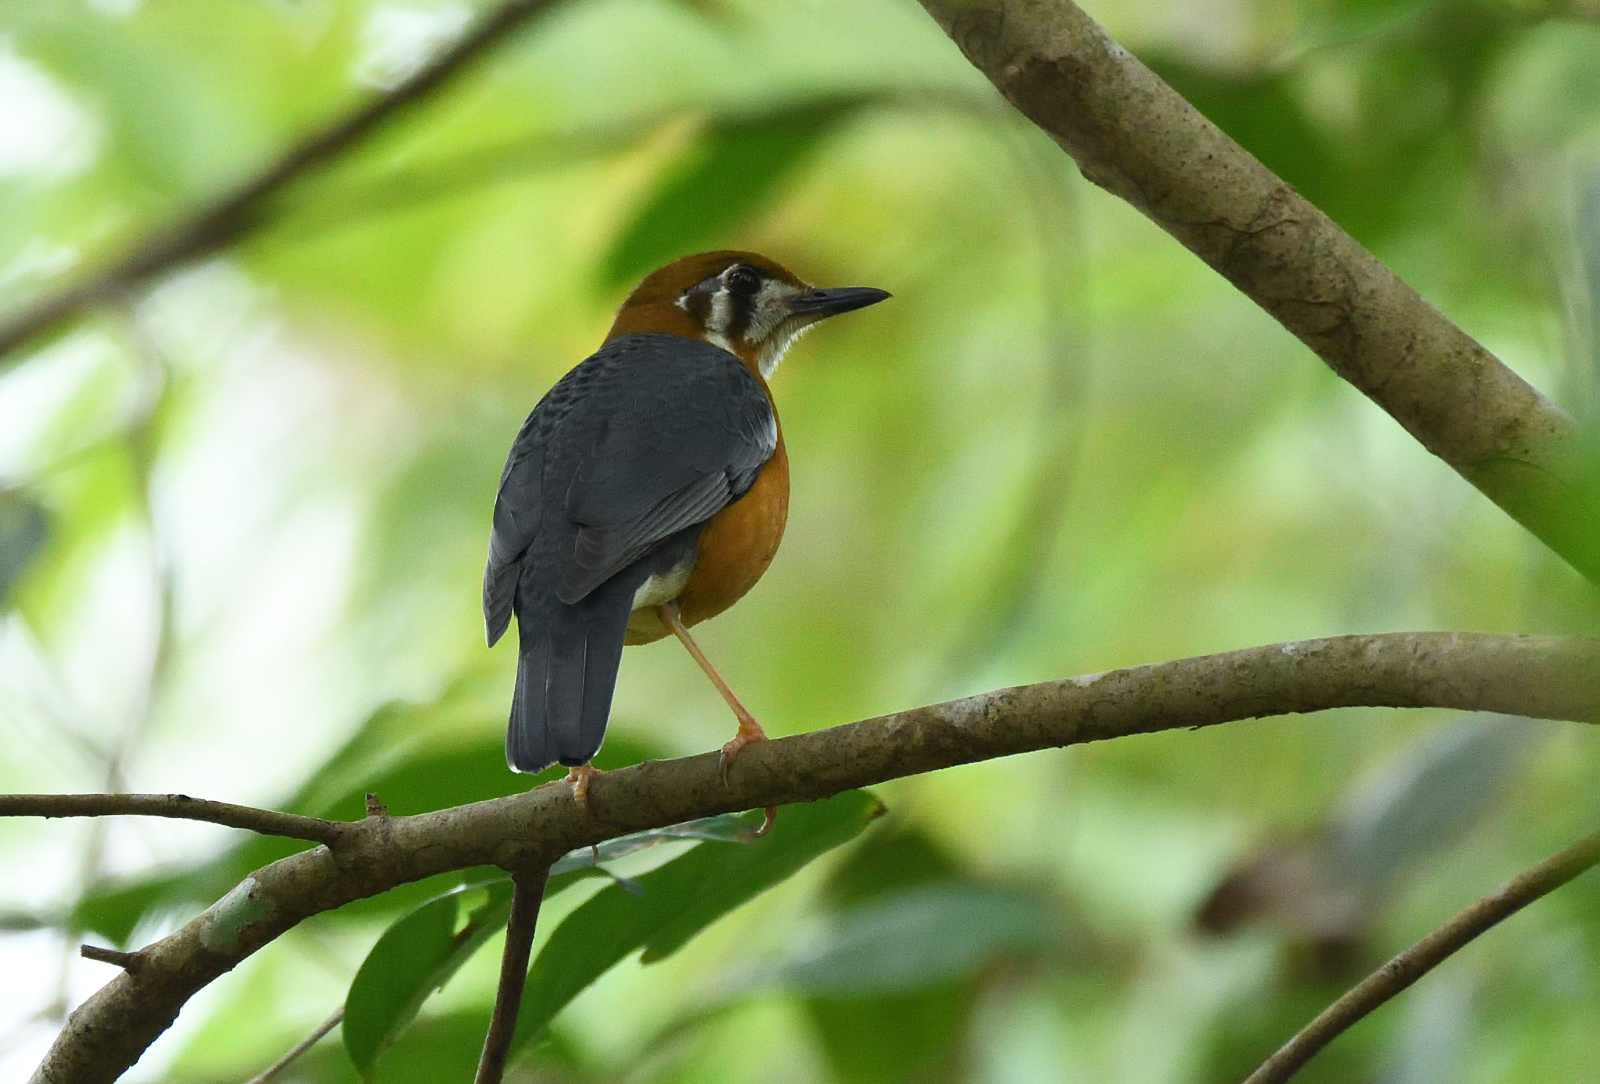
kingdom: Animalia
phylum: Chordata
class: Aves
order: Passeriformes
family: Turdidae
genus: Geokichla
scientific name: Geokichla citrina
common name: Orange-headed thrush
